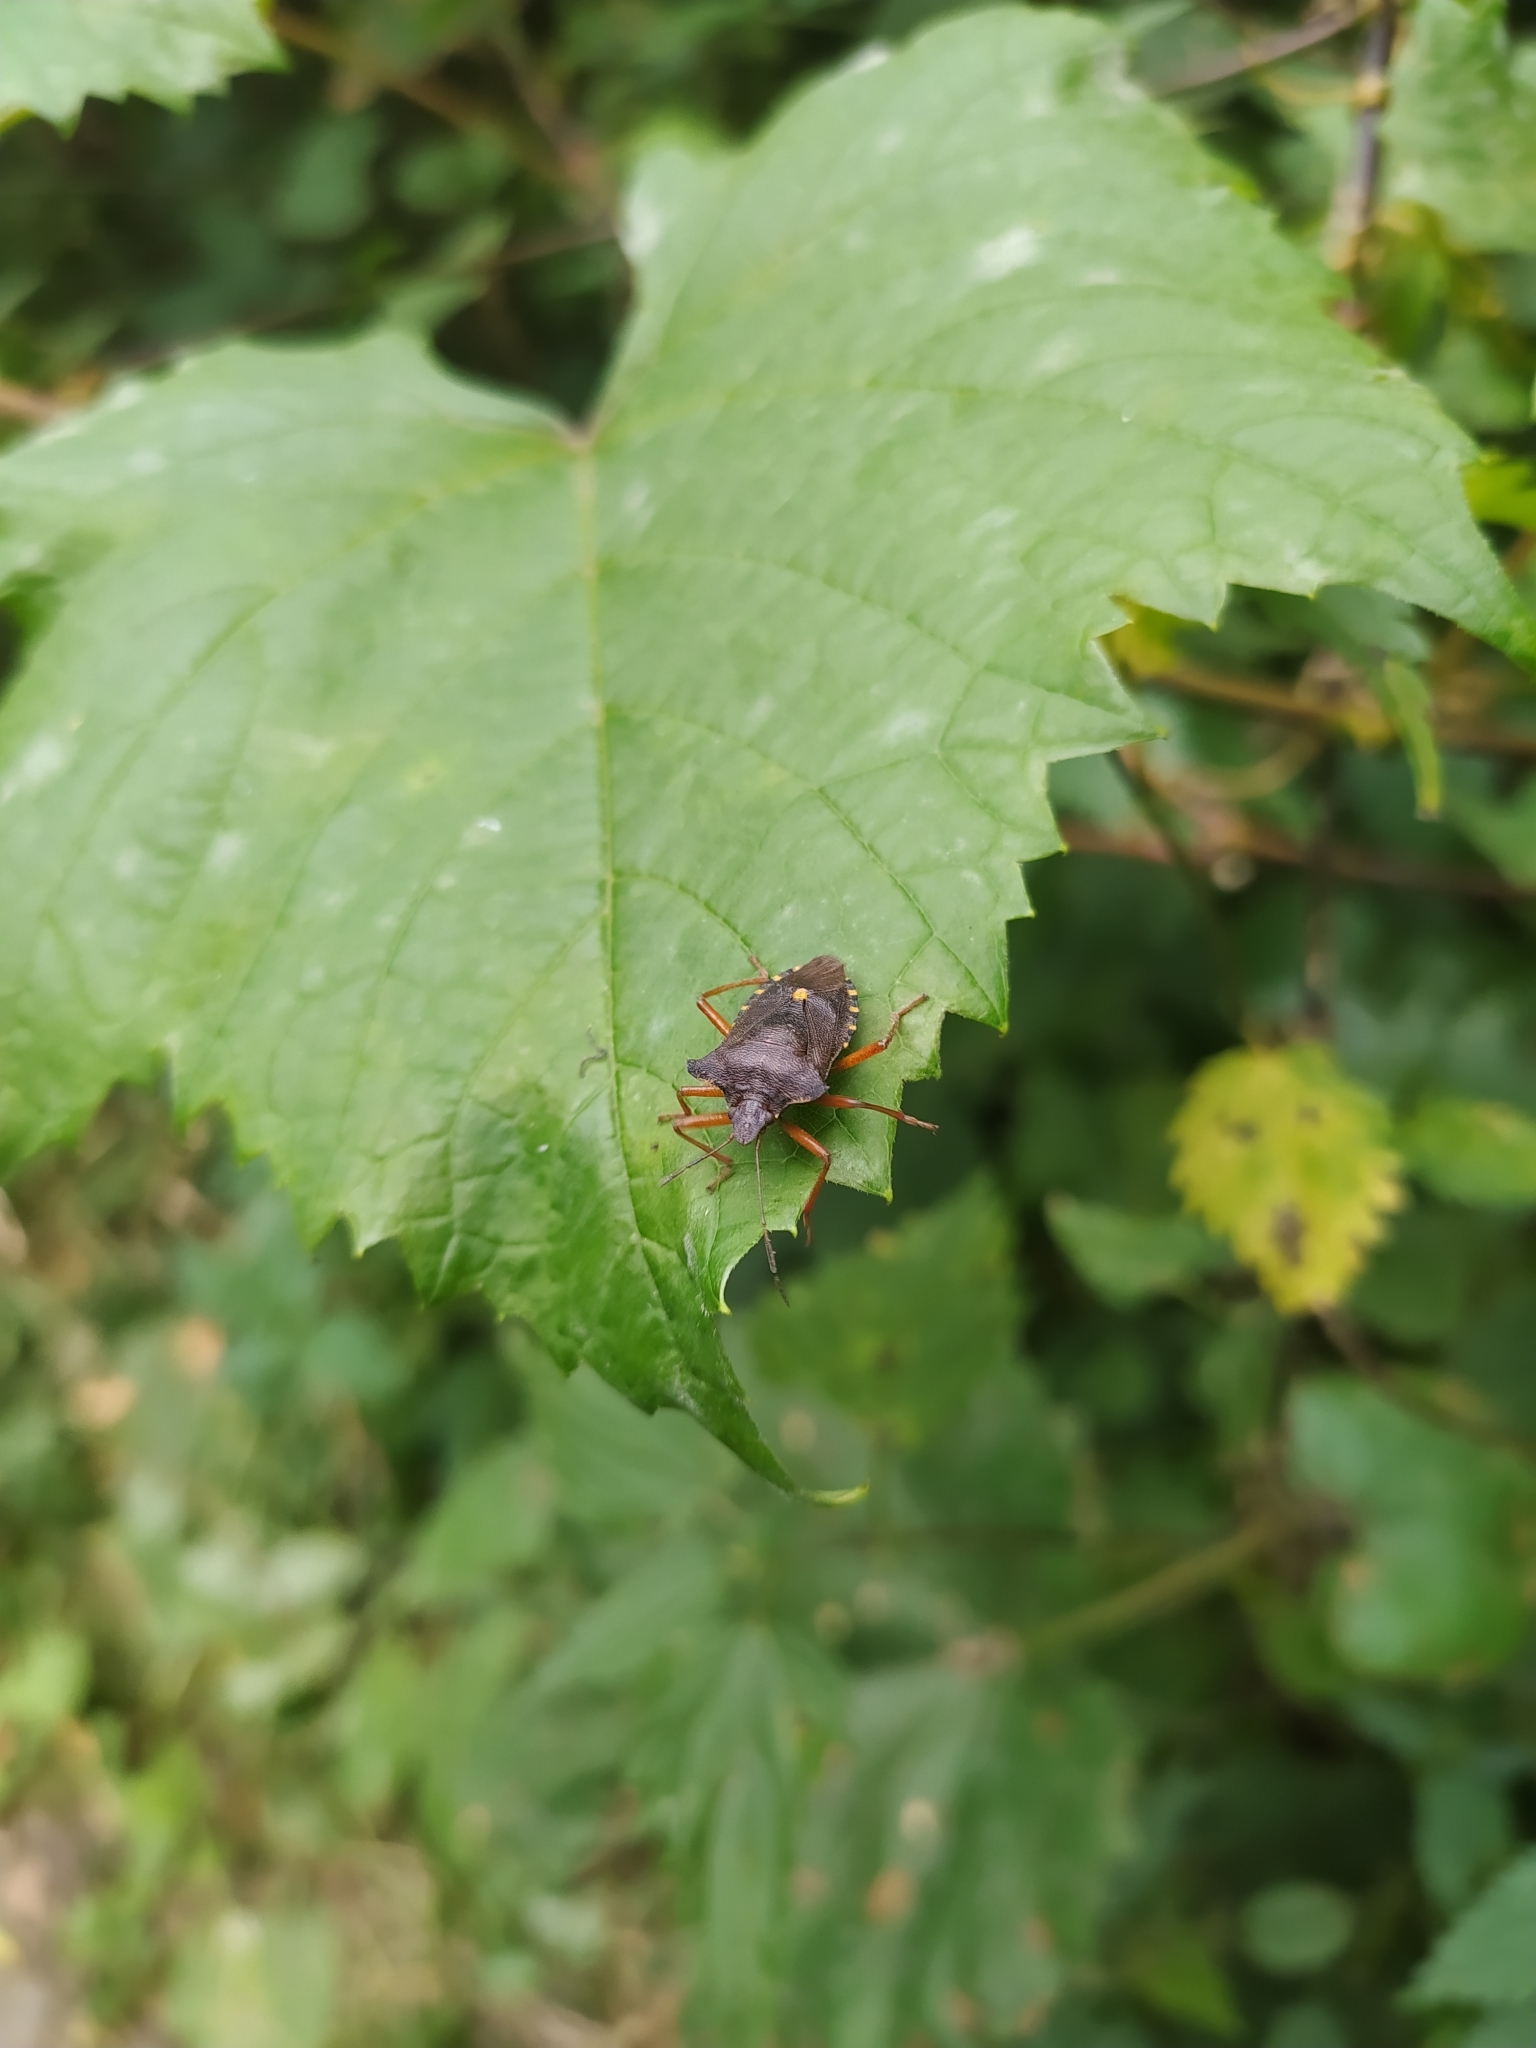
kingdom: Animalia
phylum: Arthropoda
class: Insecta
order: Hemiptera
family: Pentatomidae
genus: Pentatoma
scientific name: Pentatoma rufipes
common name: Forest bug
